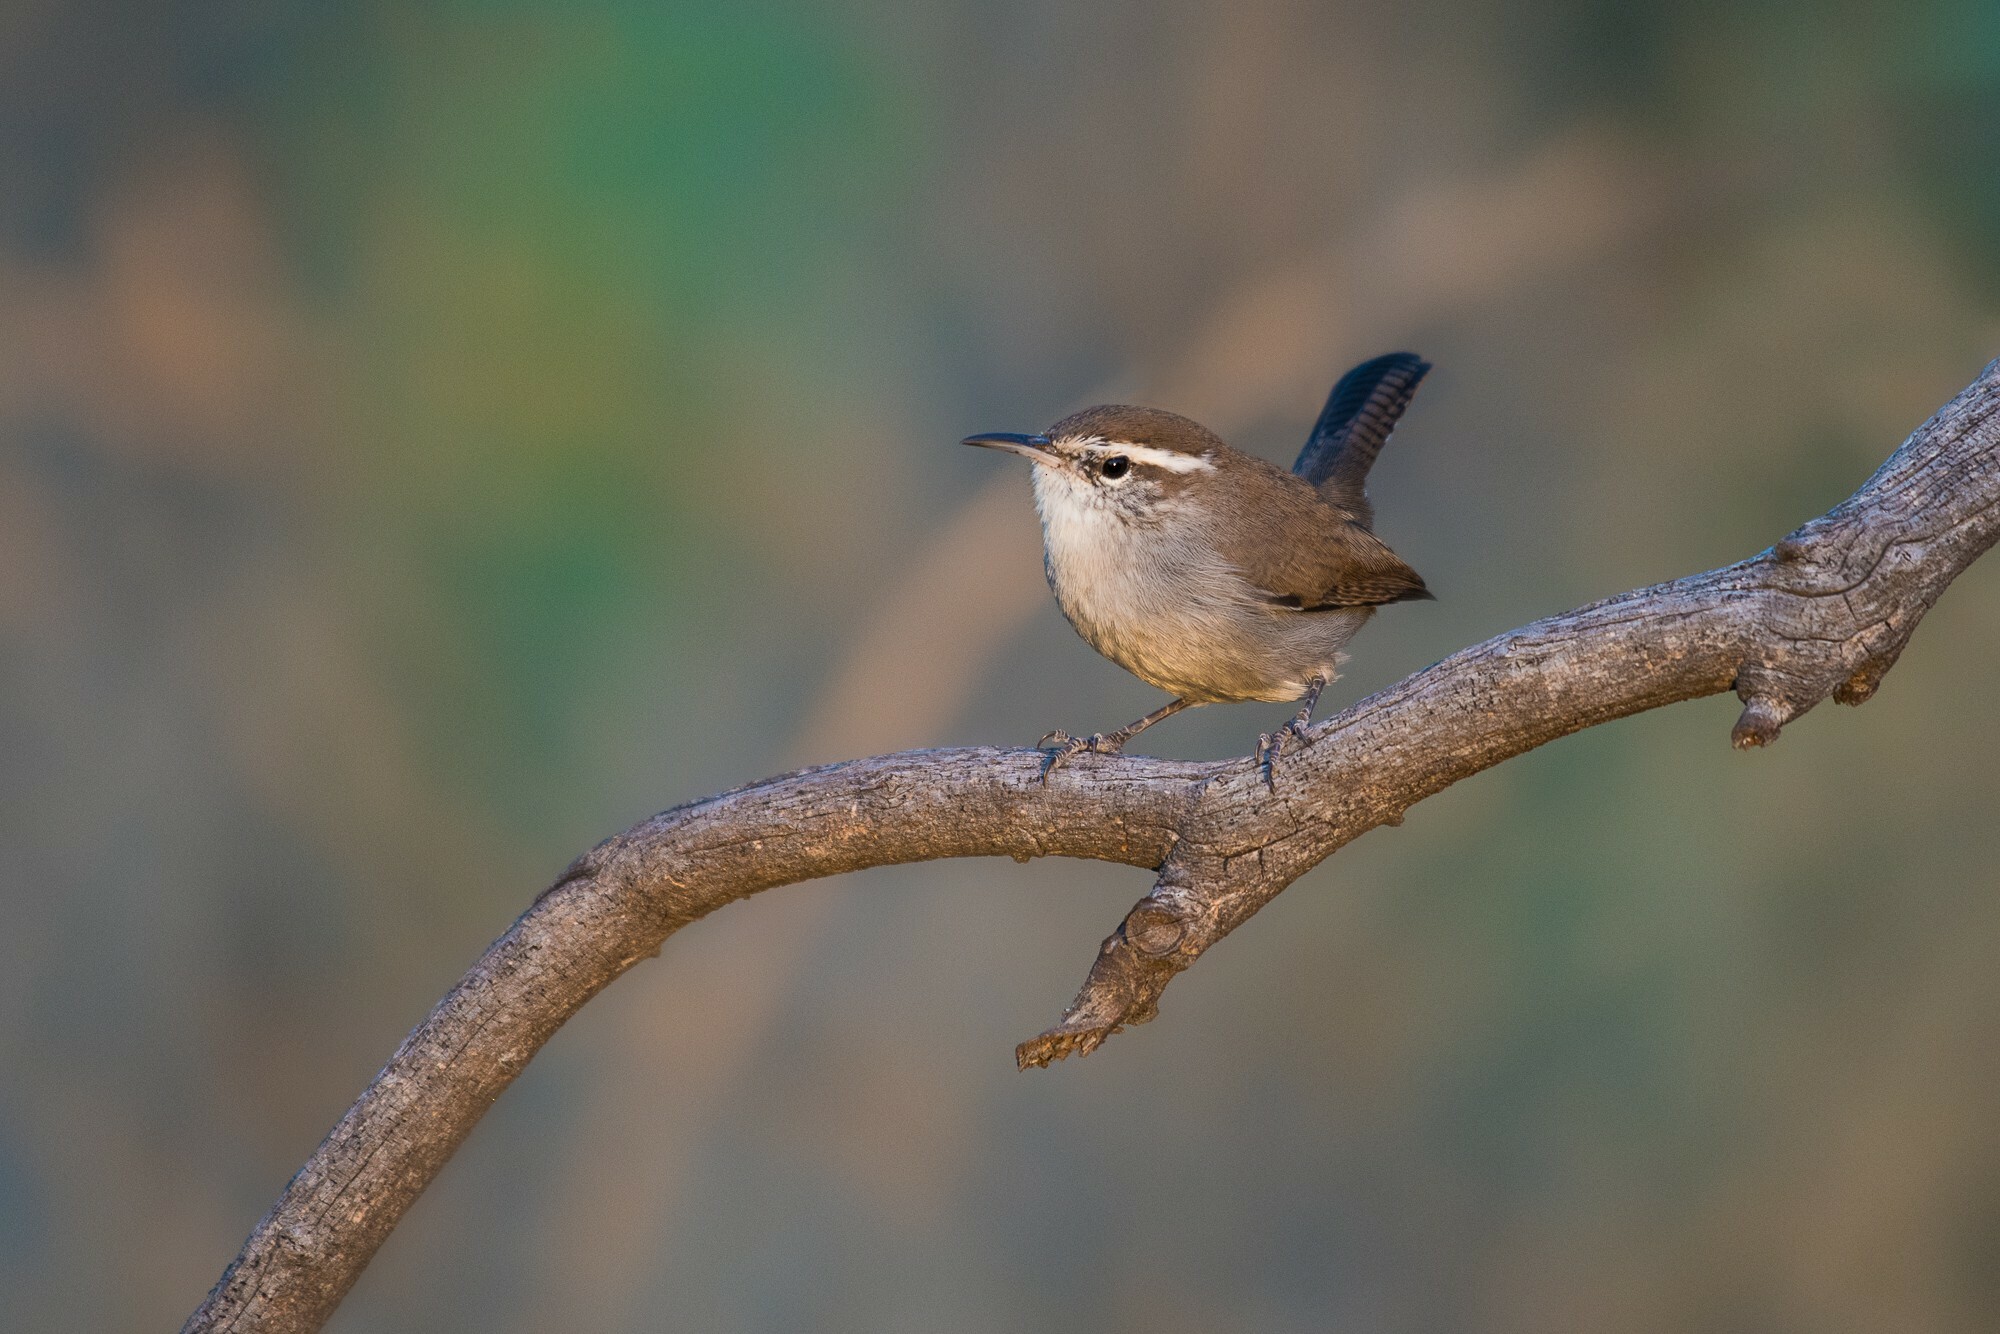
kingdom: Animalia
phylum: Chordata
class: Aves
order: Passeriformes
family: Troglodytidae
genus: Thryomanes
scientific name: Thryomanes bewickii
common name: Bewick's wren
